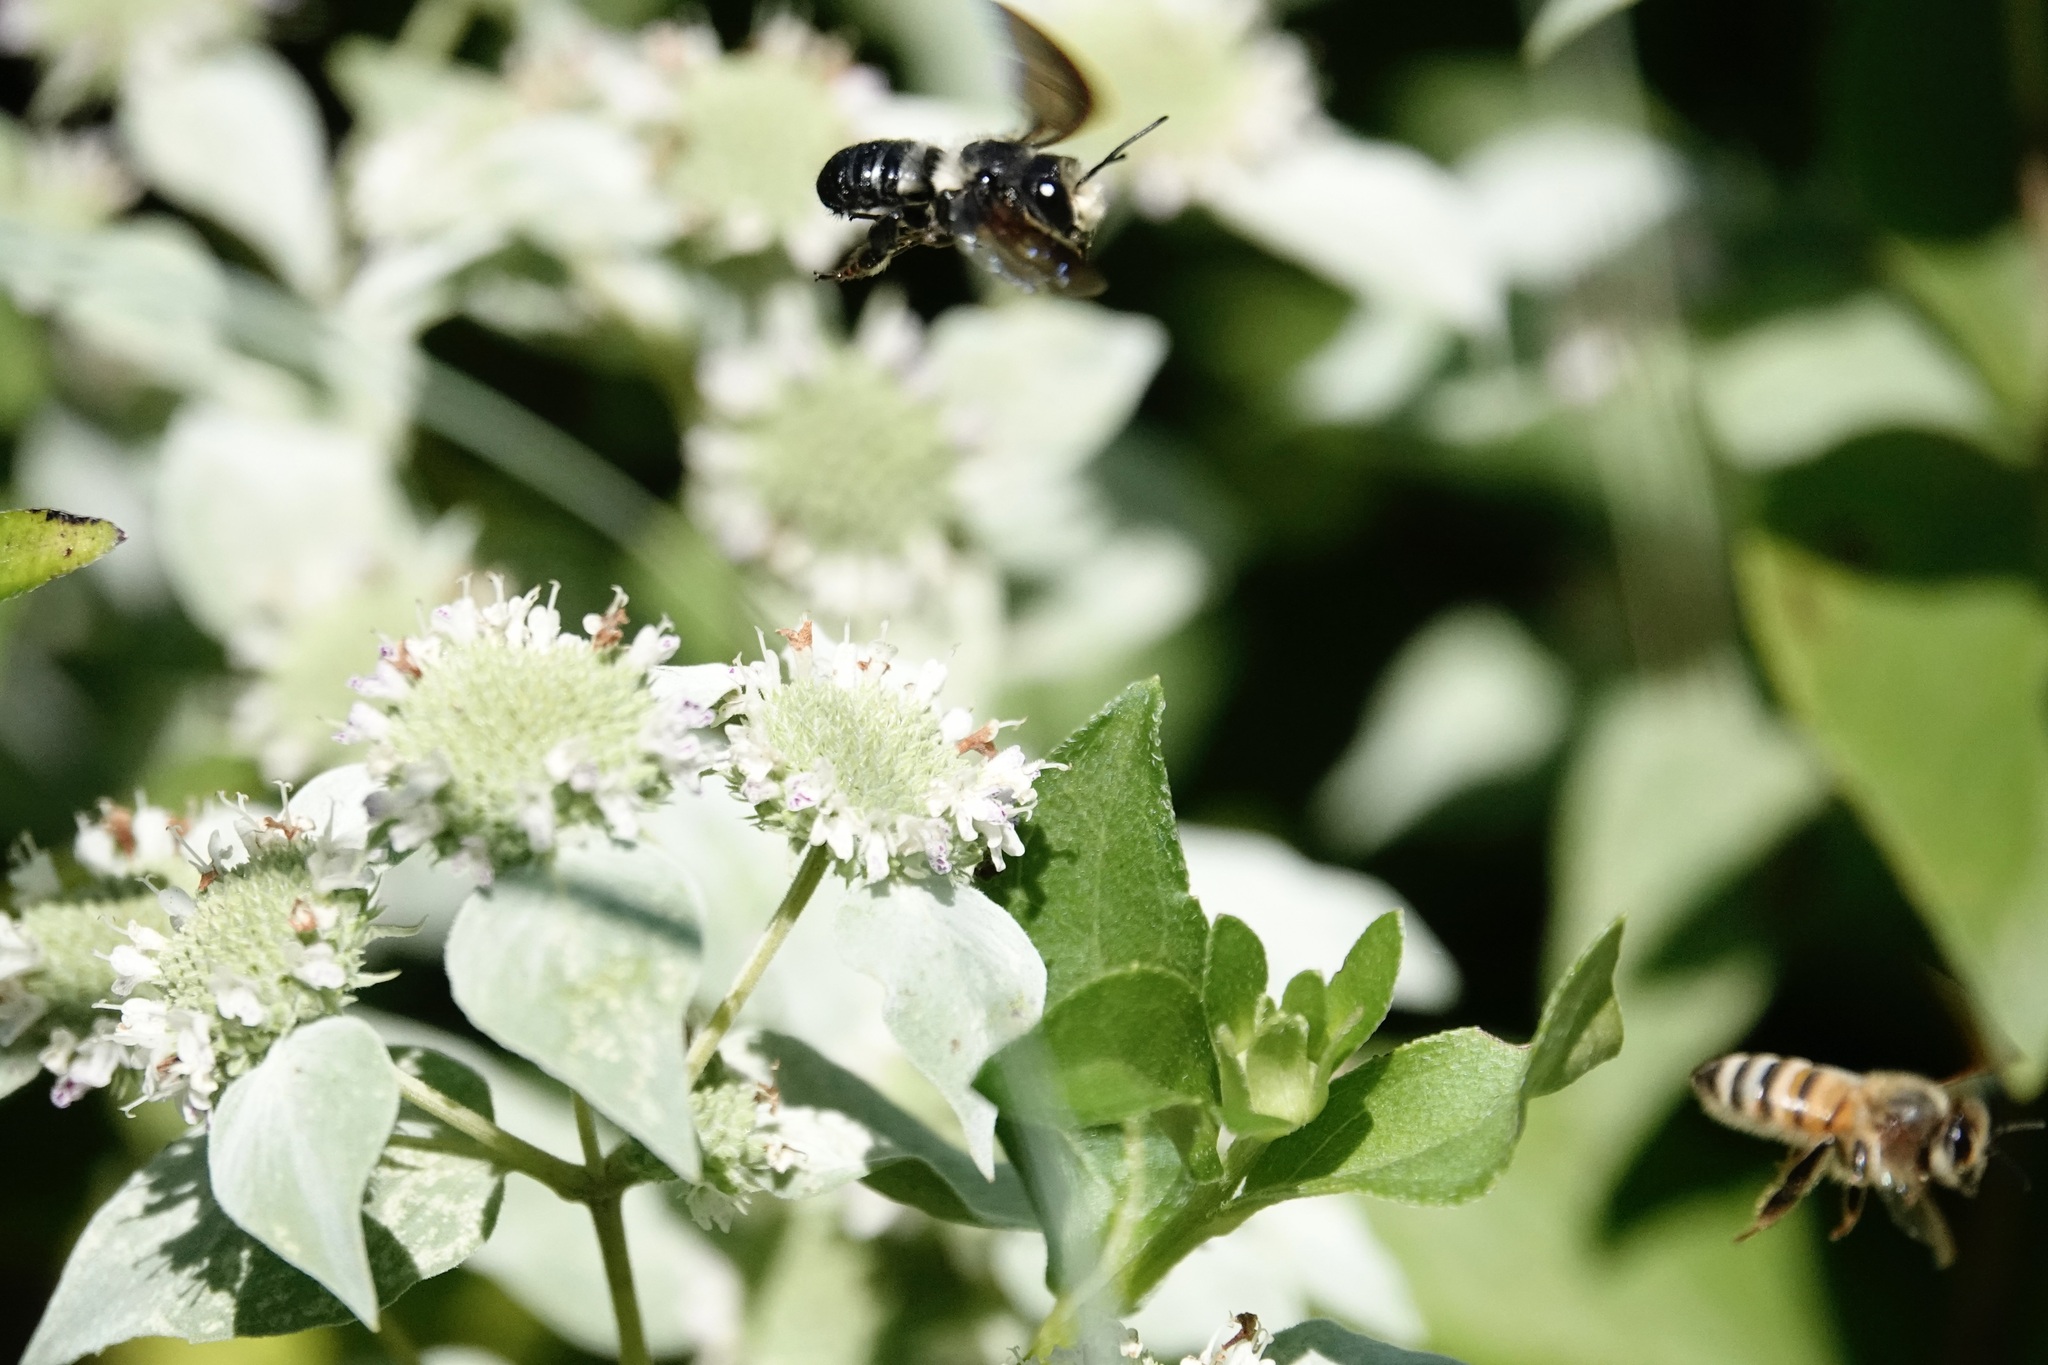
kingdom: Animalia
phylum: Arthropoda
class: Insecta
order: Hymenoptera
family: Megachilidae
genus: Megachile
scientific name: Megachile xylocopoides
